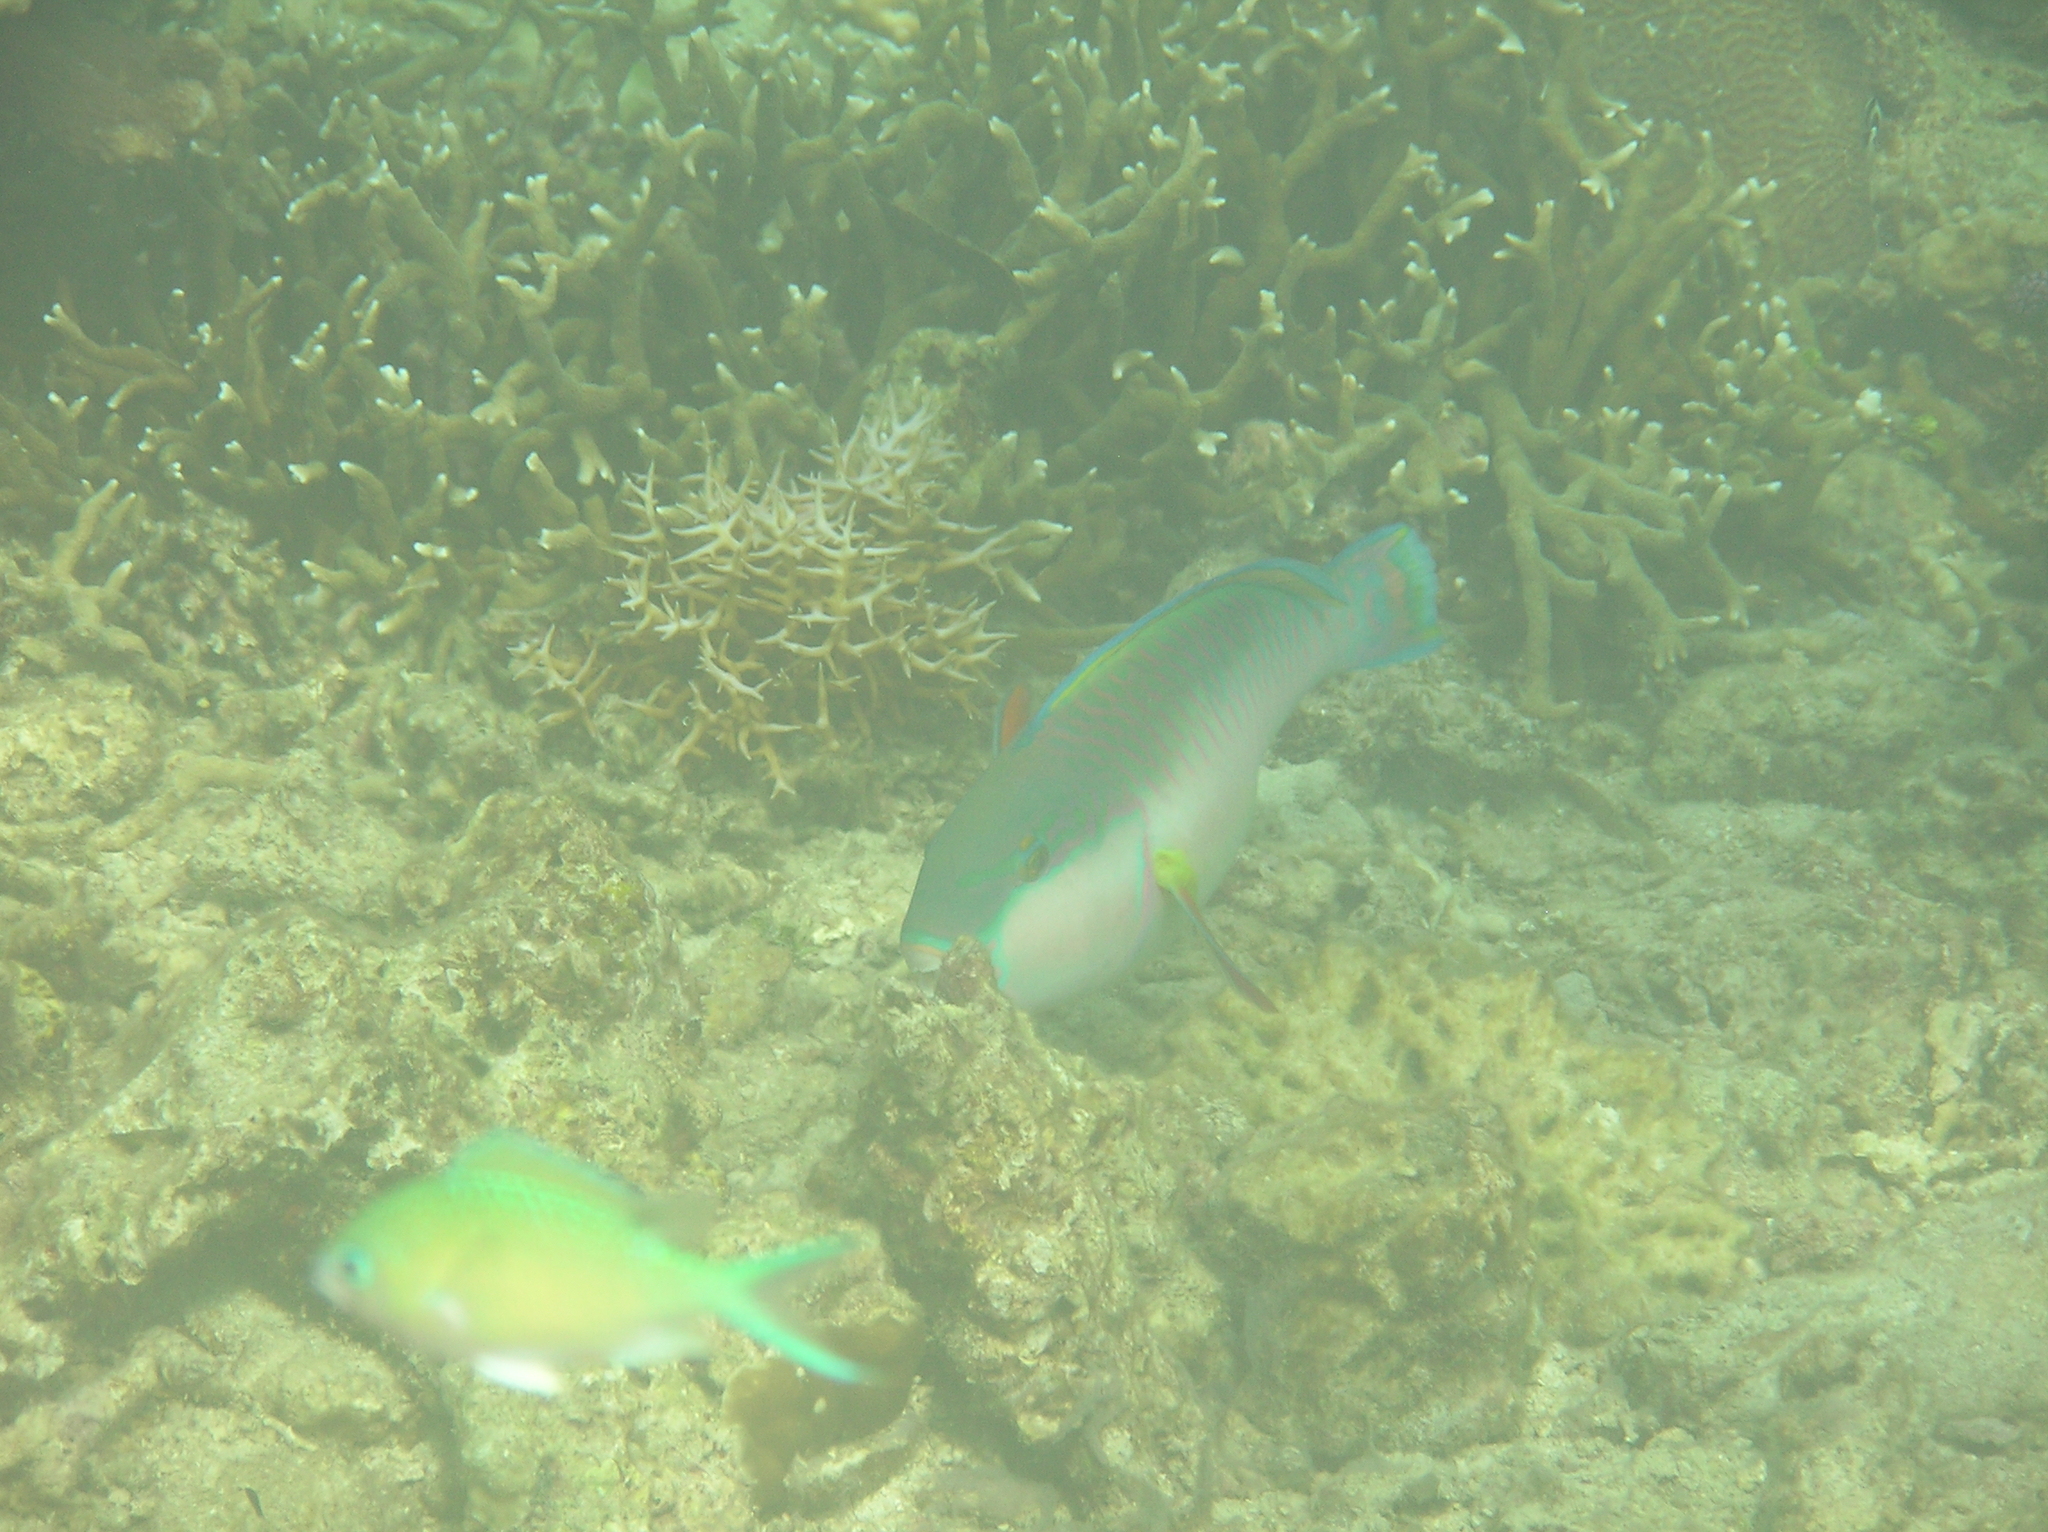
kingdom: Animalia
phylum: Chordata
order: Perciformes
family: Scaridae
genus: Chlorurus
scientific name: Chlorurus capistratoides
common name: Pink-margined parrotfish
